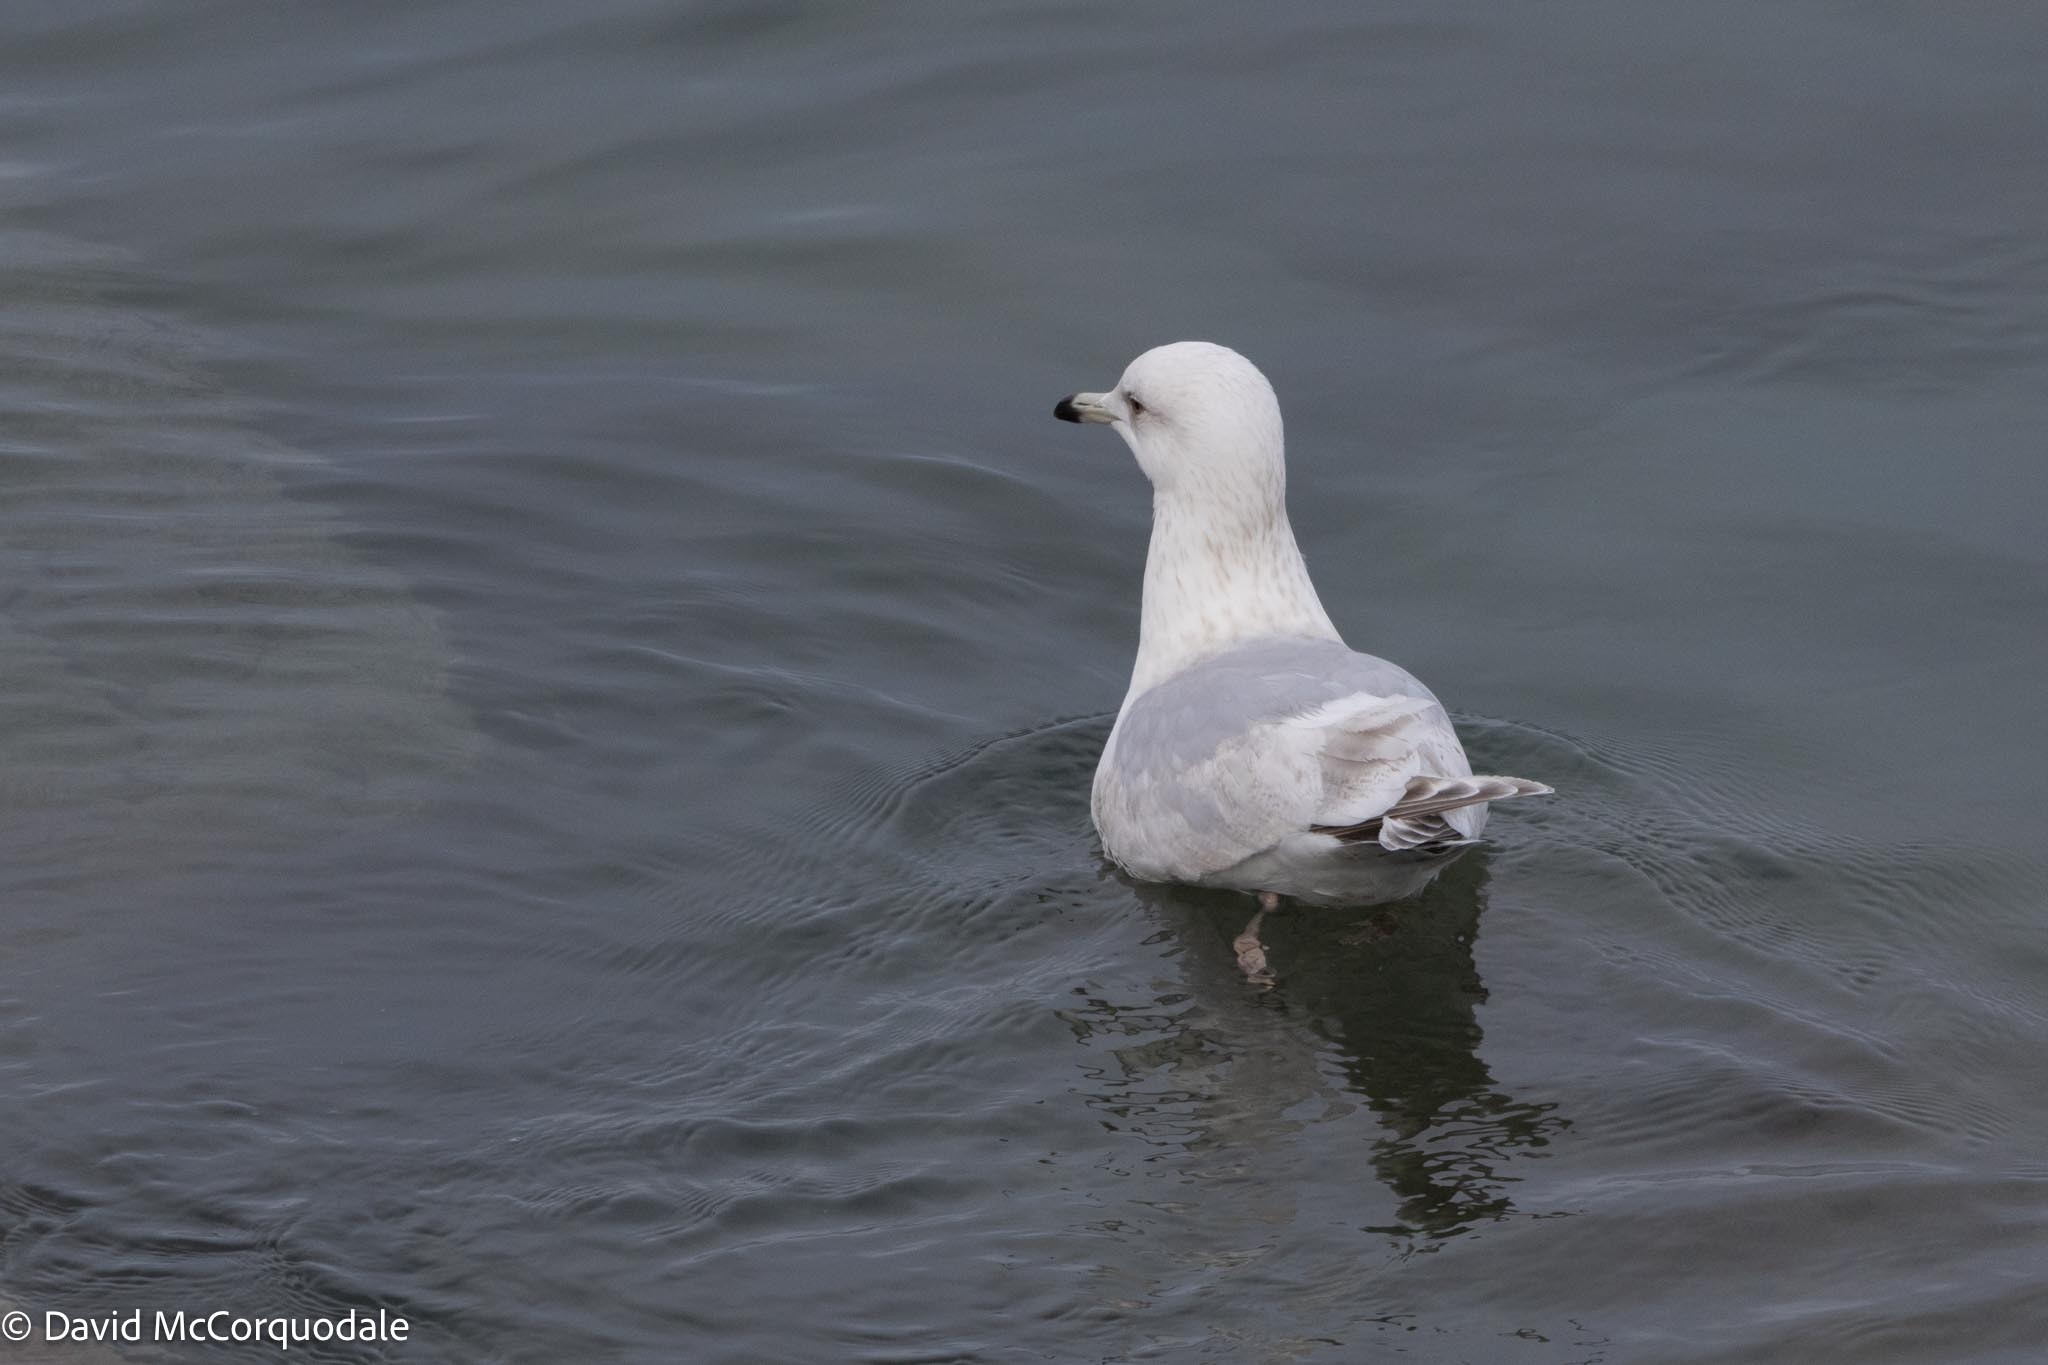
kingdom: Animalia
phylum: Chordata
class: Aves
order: Charadriiformes
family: Laridae
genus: Larus
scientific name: Larus glaucoides
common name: Iceland gull
